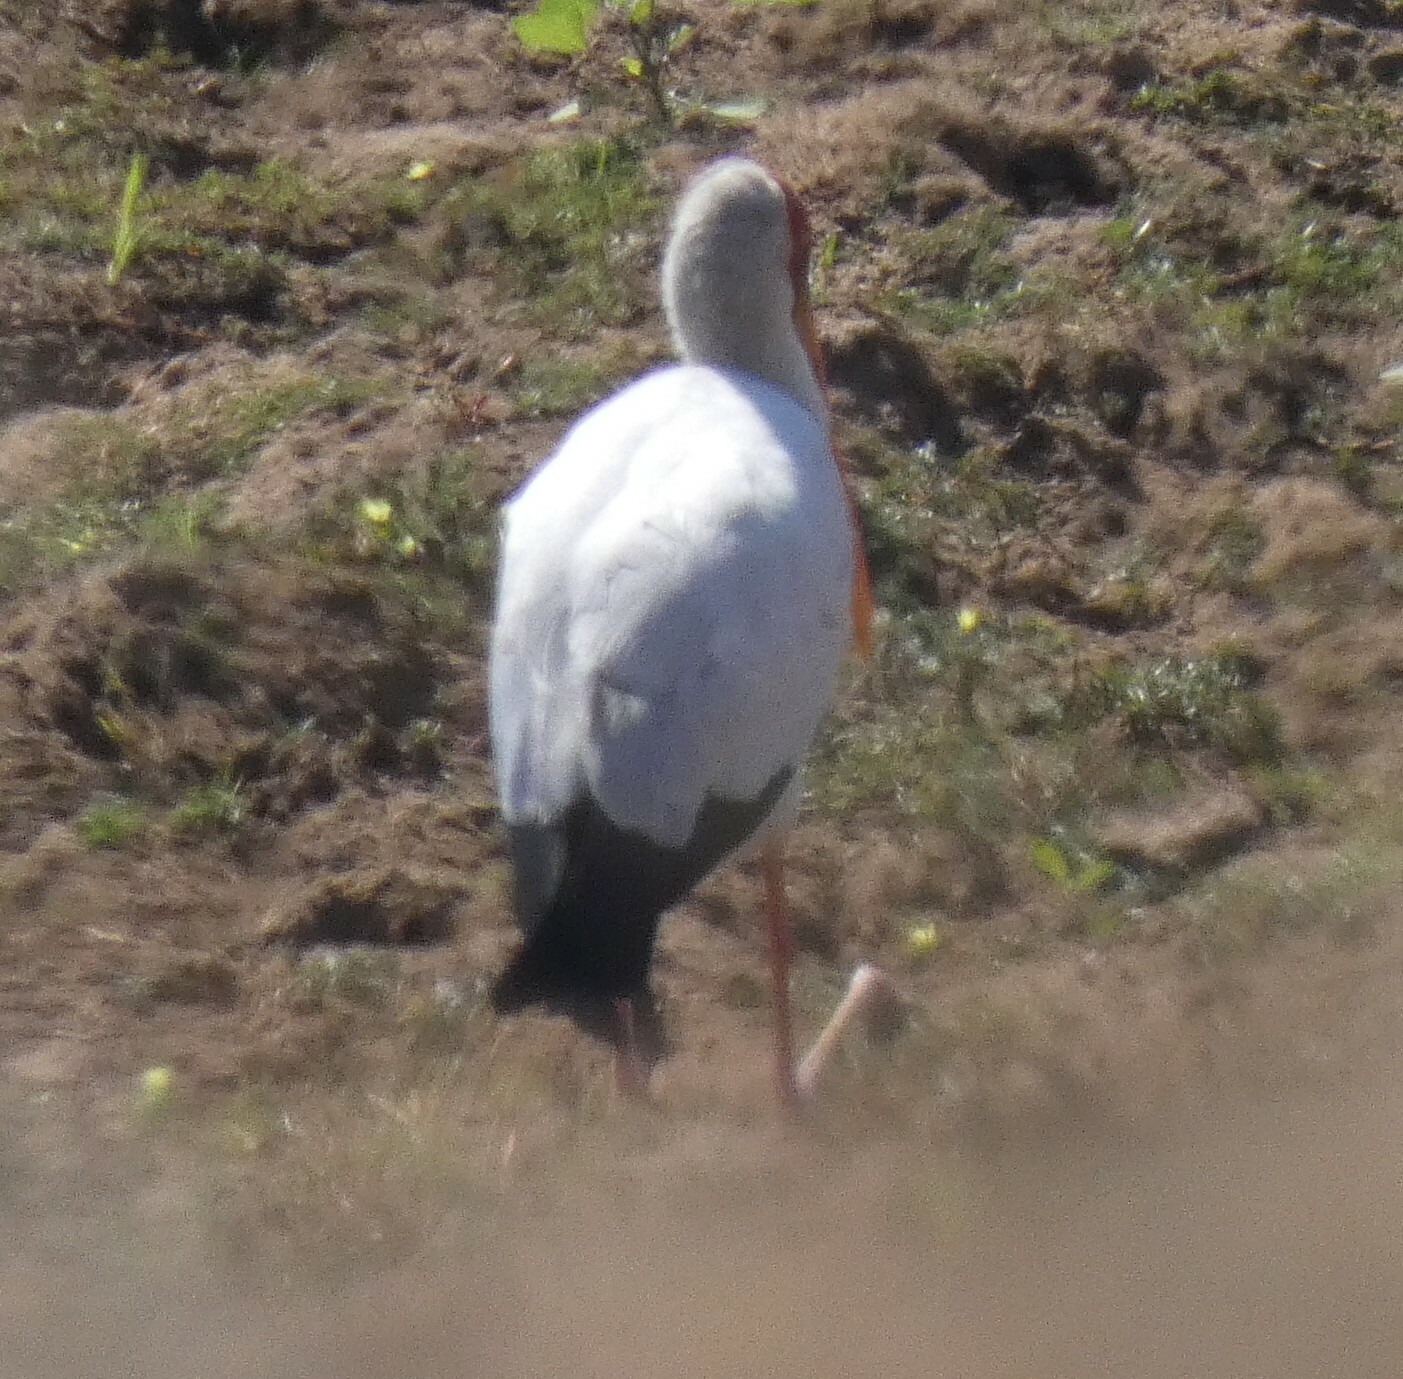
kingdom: Animalia
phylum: Chordata
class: Aves
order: Ciconiiformes
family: Ciconiidae
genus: Mycteria
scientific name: Mycteria ibis
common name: Yellow-billed stork
